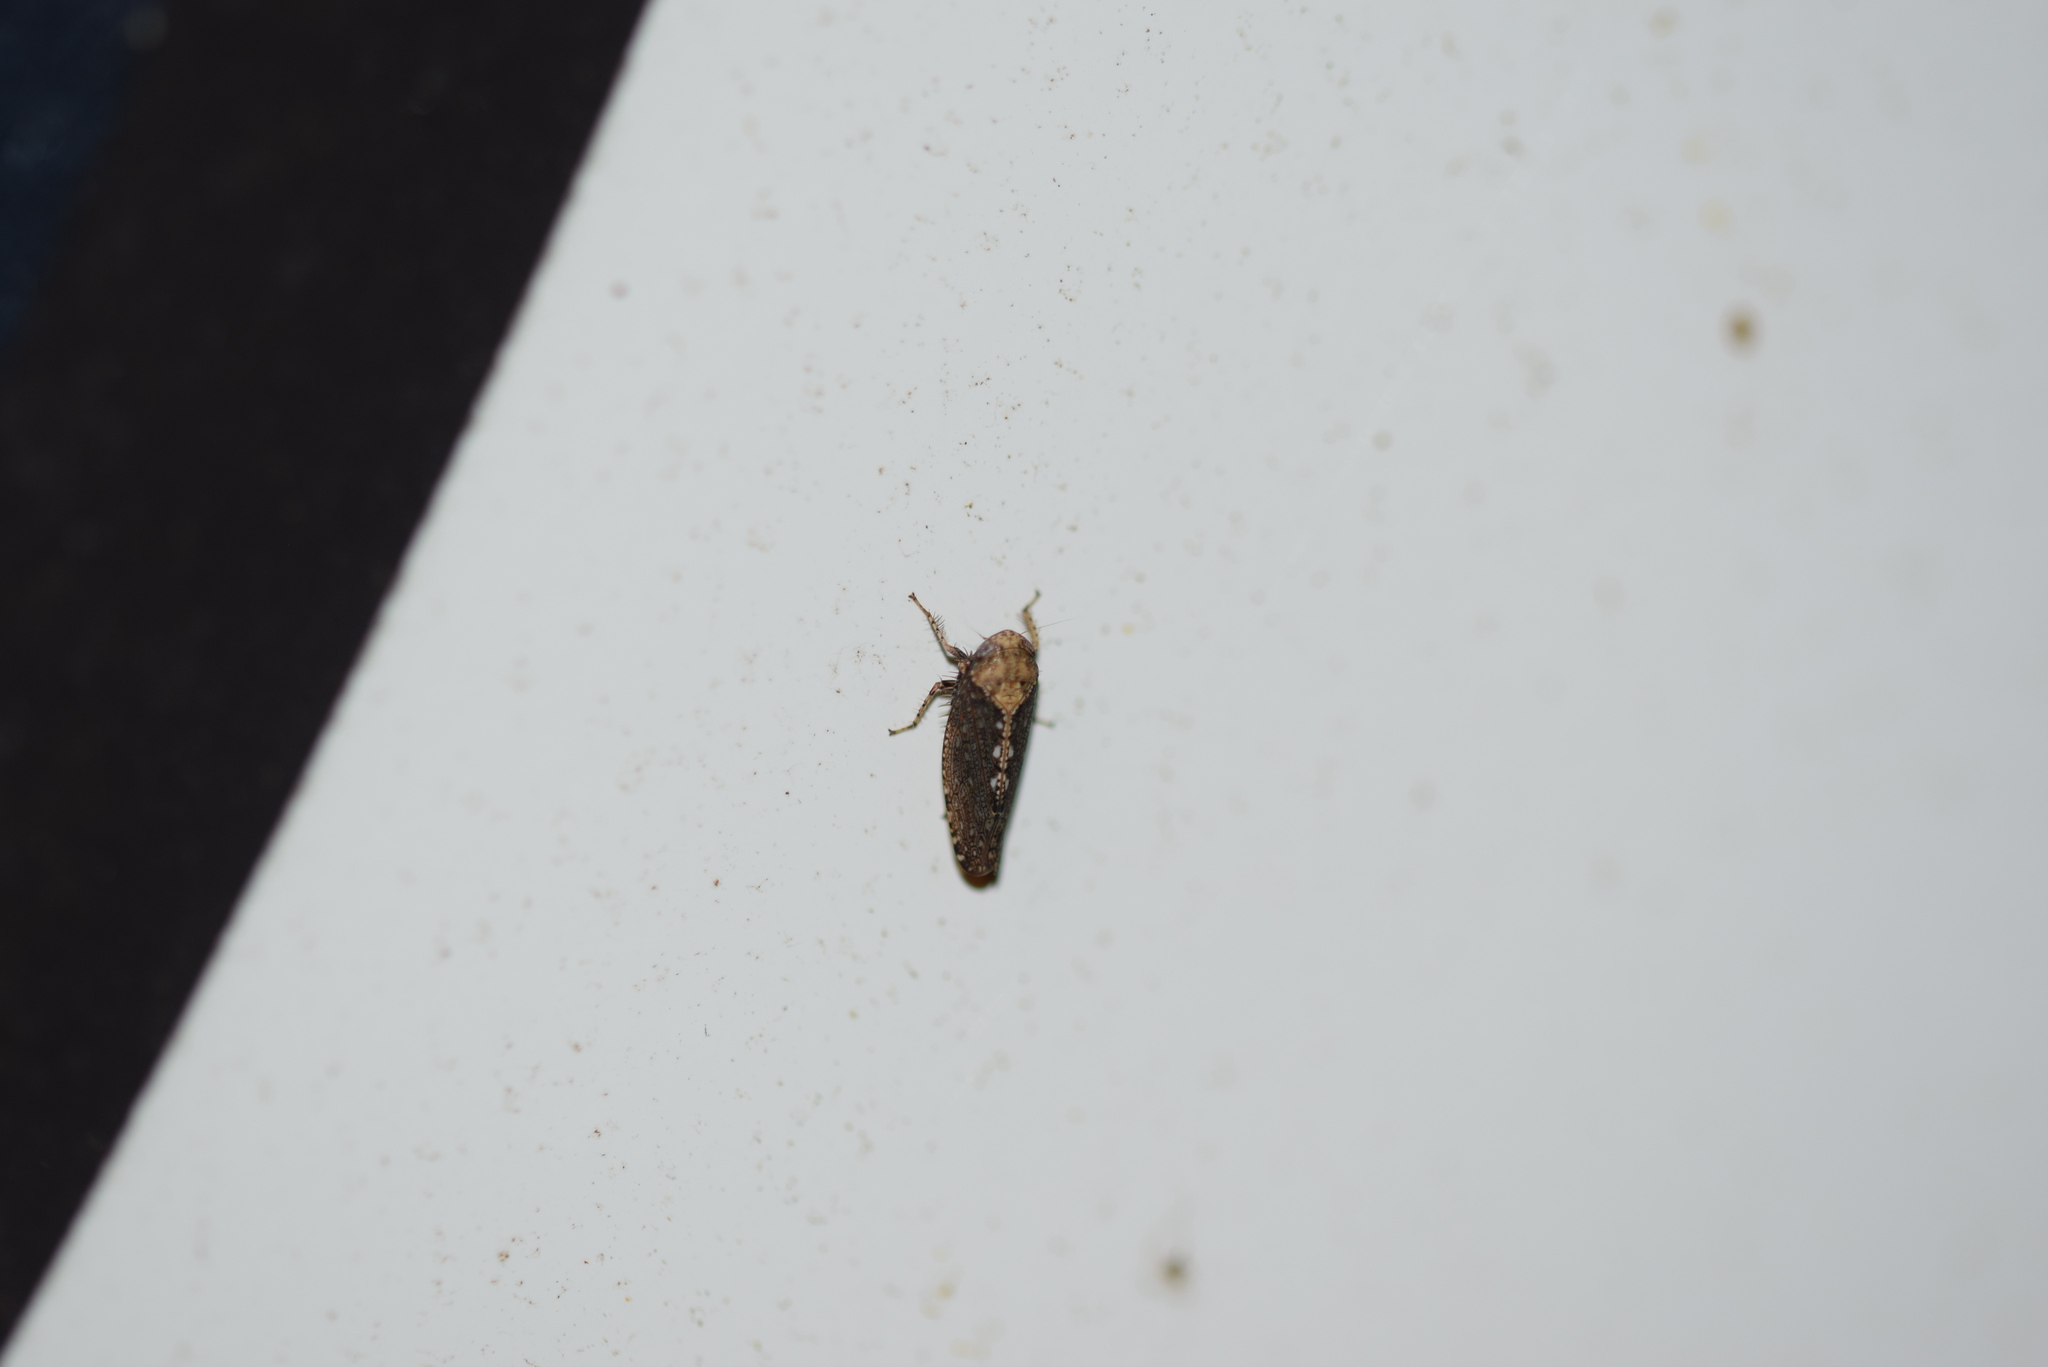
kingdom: Animalia
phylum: Arthropoda
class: Insecta
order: Hemiptera
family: Cicadellidae
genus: Excultanus
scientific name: Excultanus excultus
